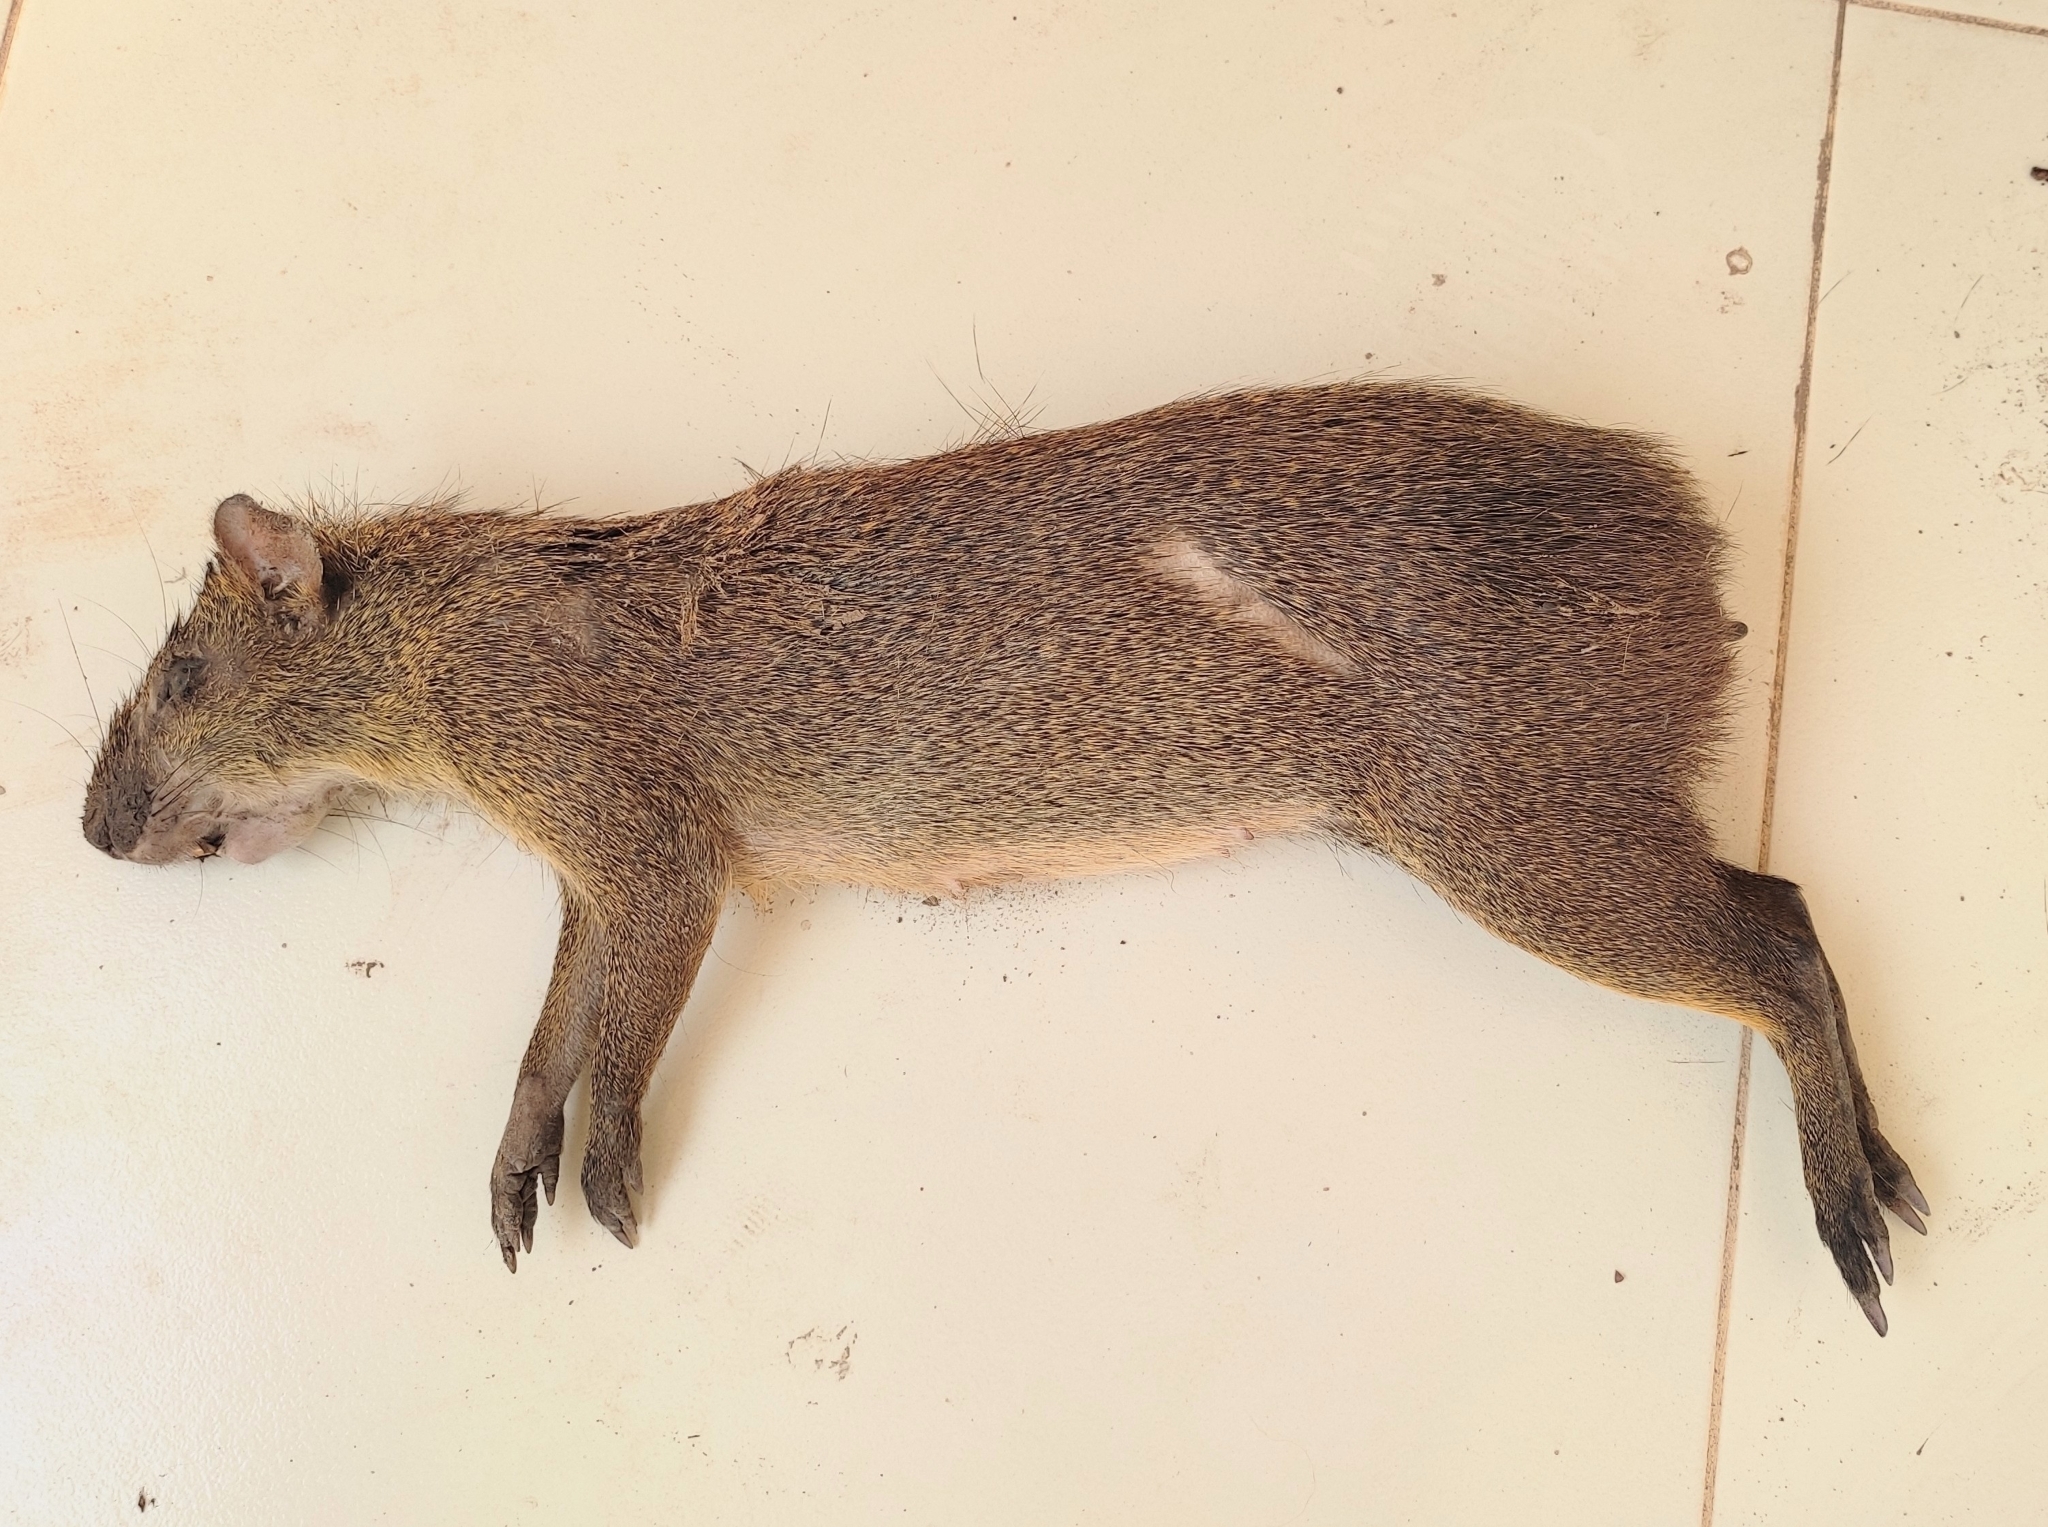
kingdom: Animalia
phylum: Chordata
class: Mammalia
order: Rodentia
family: Dasyproctidae
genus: Dasyprocta
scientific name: Dasyprocta azarae
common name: Azara's agouti
